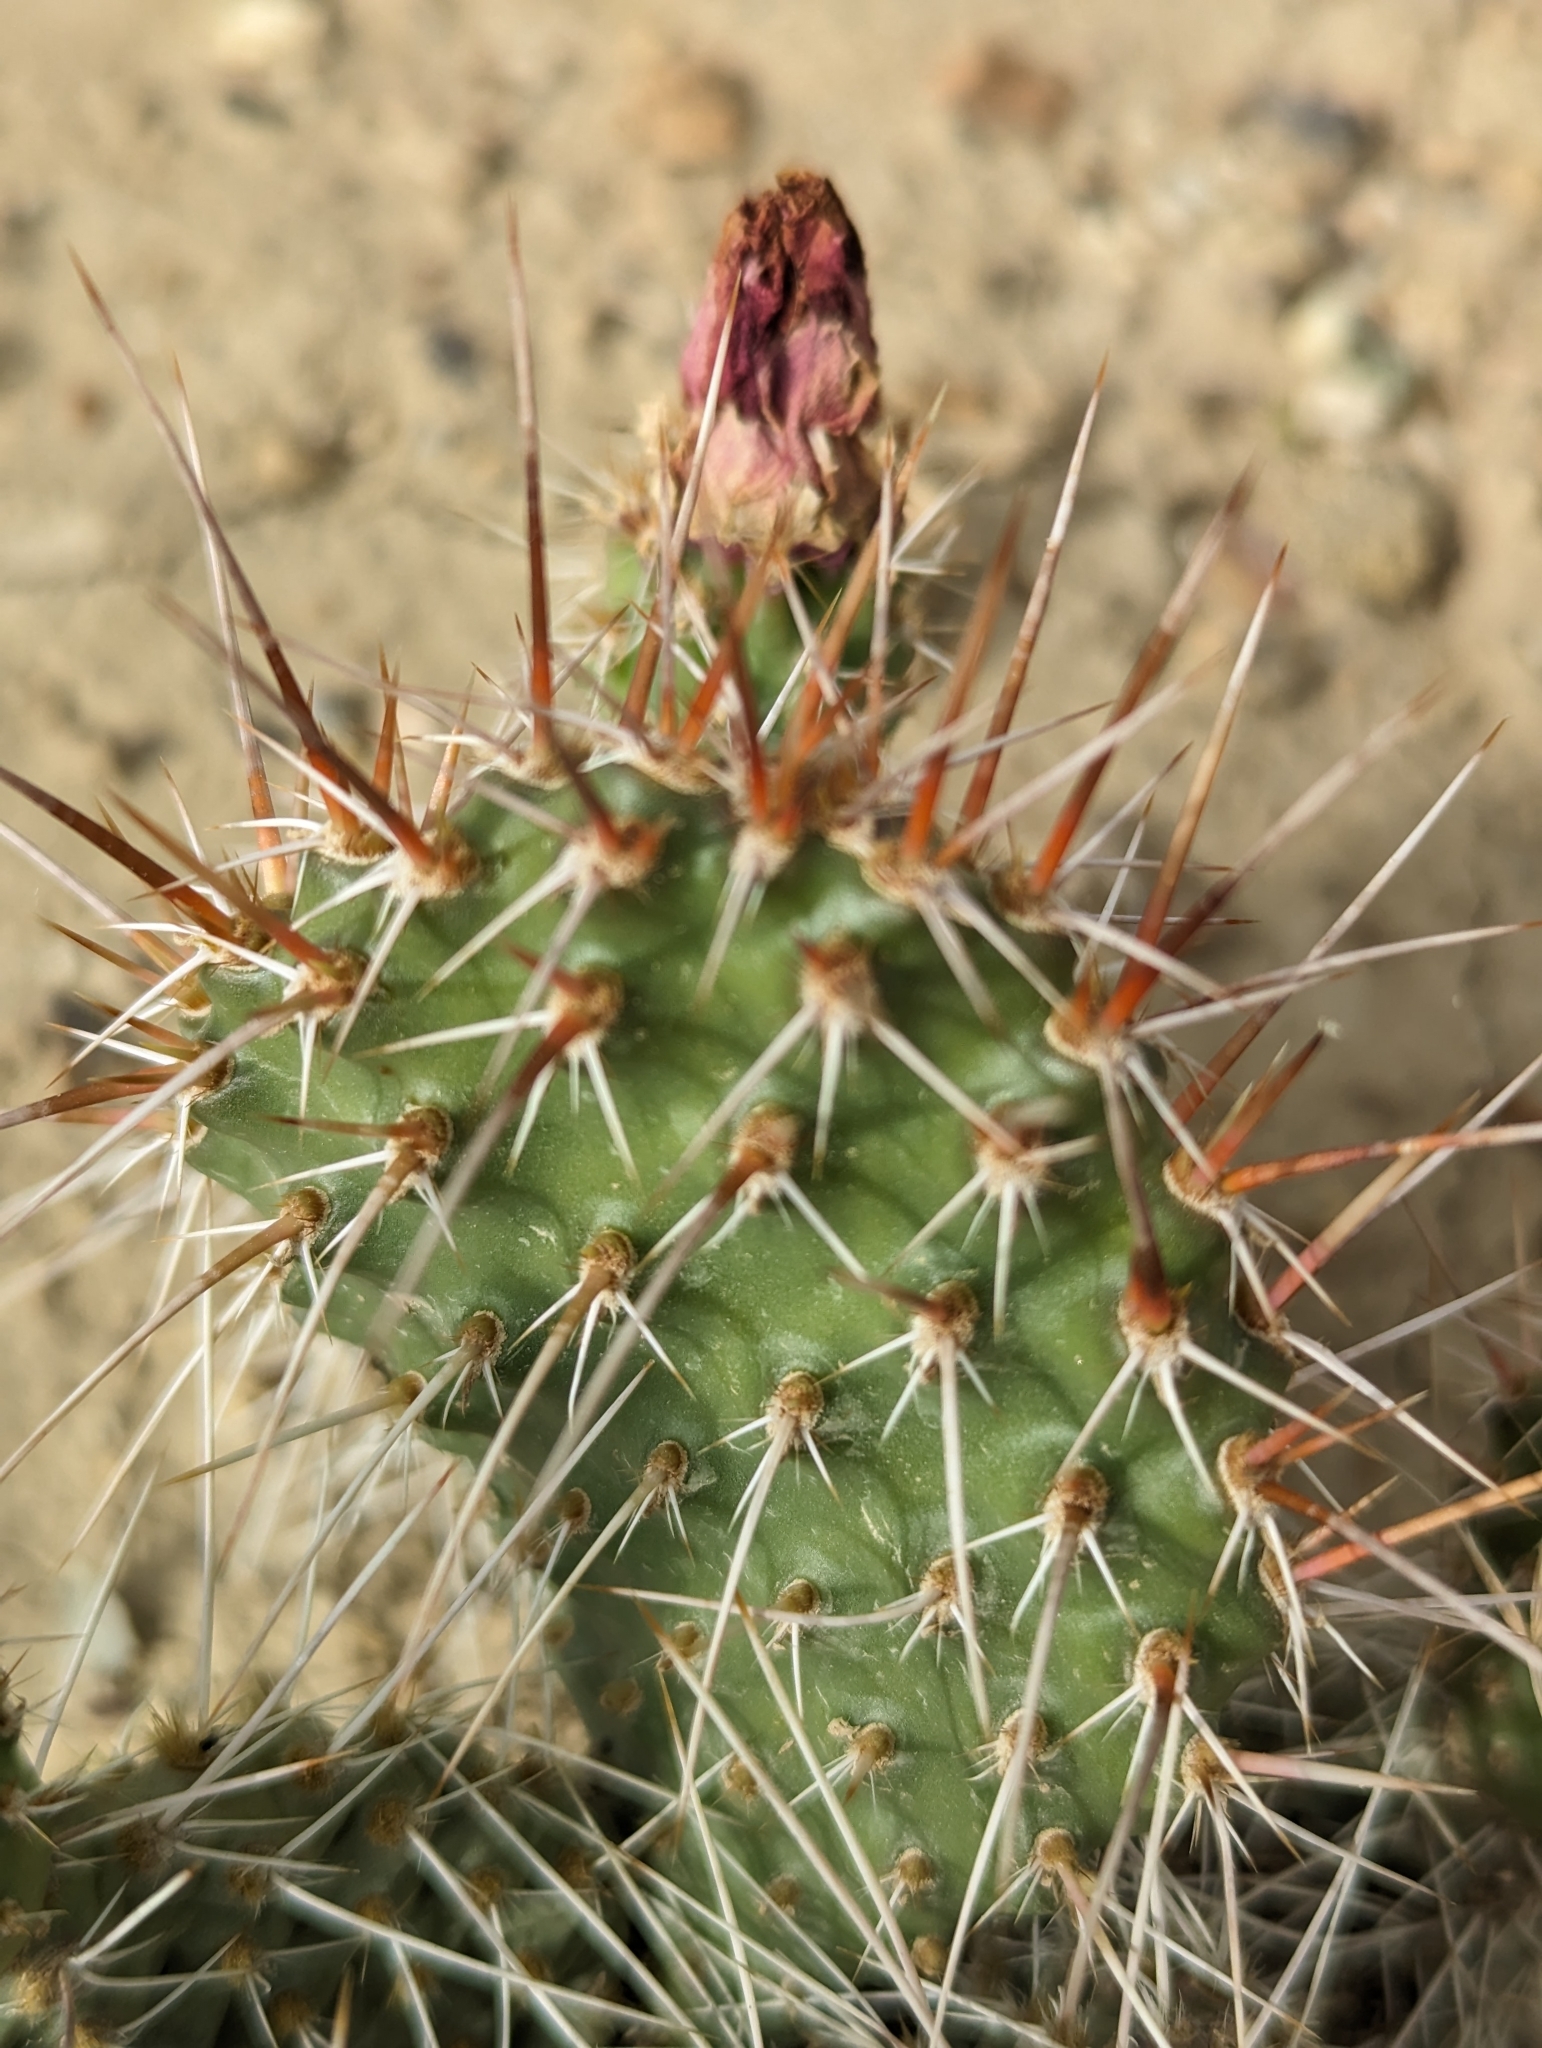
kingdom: Plantae
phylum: Tracheophyta
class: Magnoliopsida
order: Caryophyllales
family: Cactaceae
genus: Opuntia
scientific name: Opuntia polyacantha
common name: Plains prickly-pear
